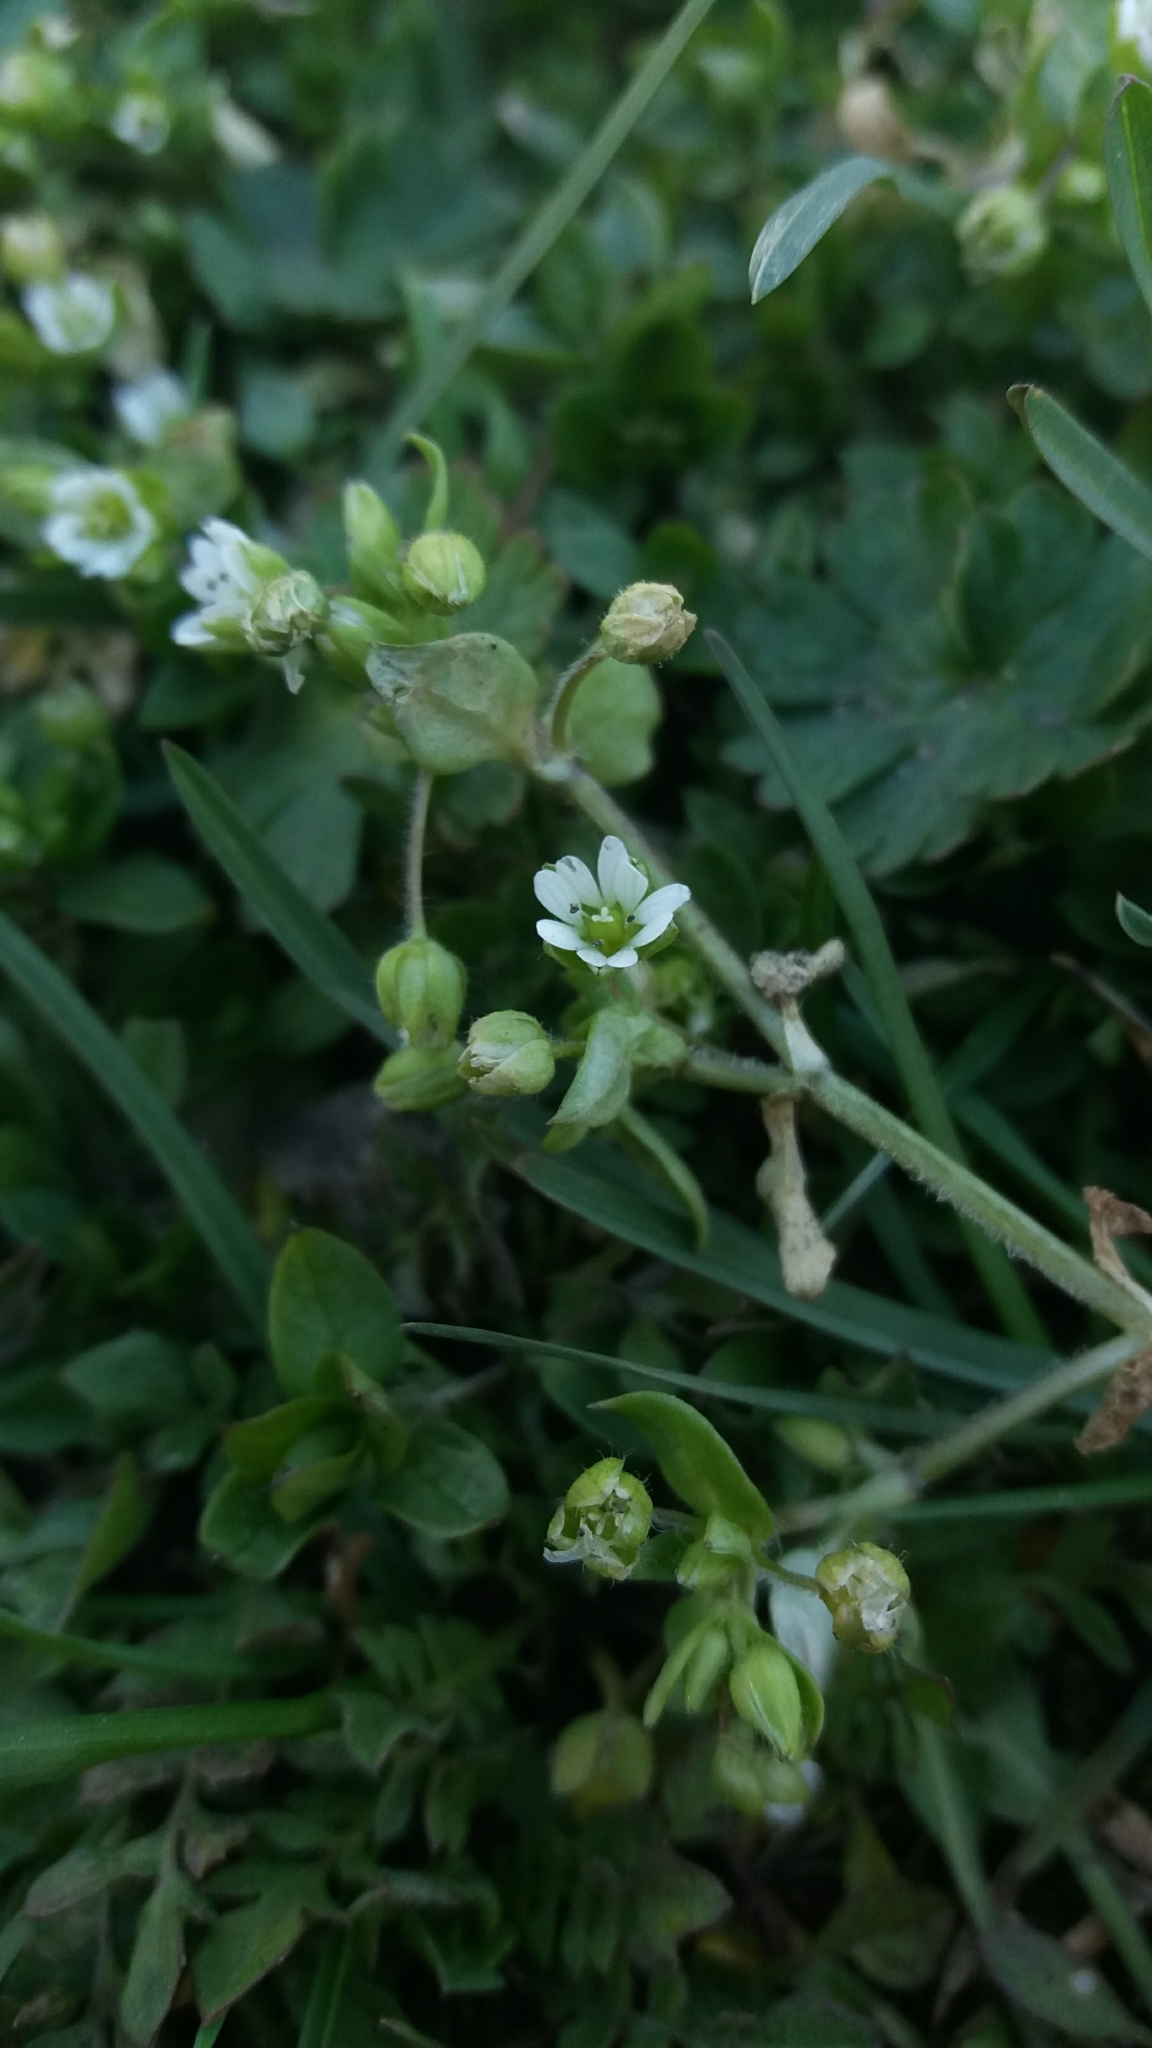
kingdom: Plantae
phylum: Tracheophyta
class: Magnoliopsida
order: Caryophyllales
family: Caryophyllaceae
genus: Stellaria
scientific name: Stellaria media
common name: Common chickweed
